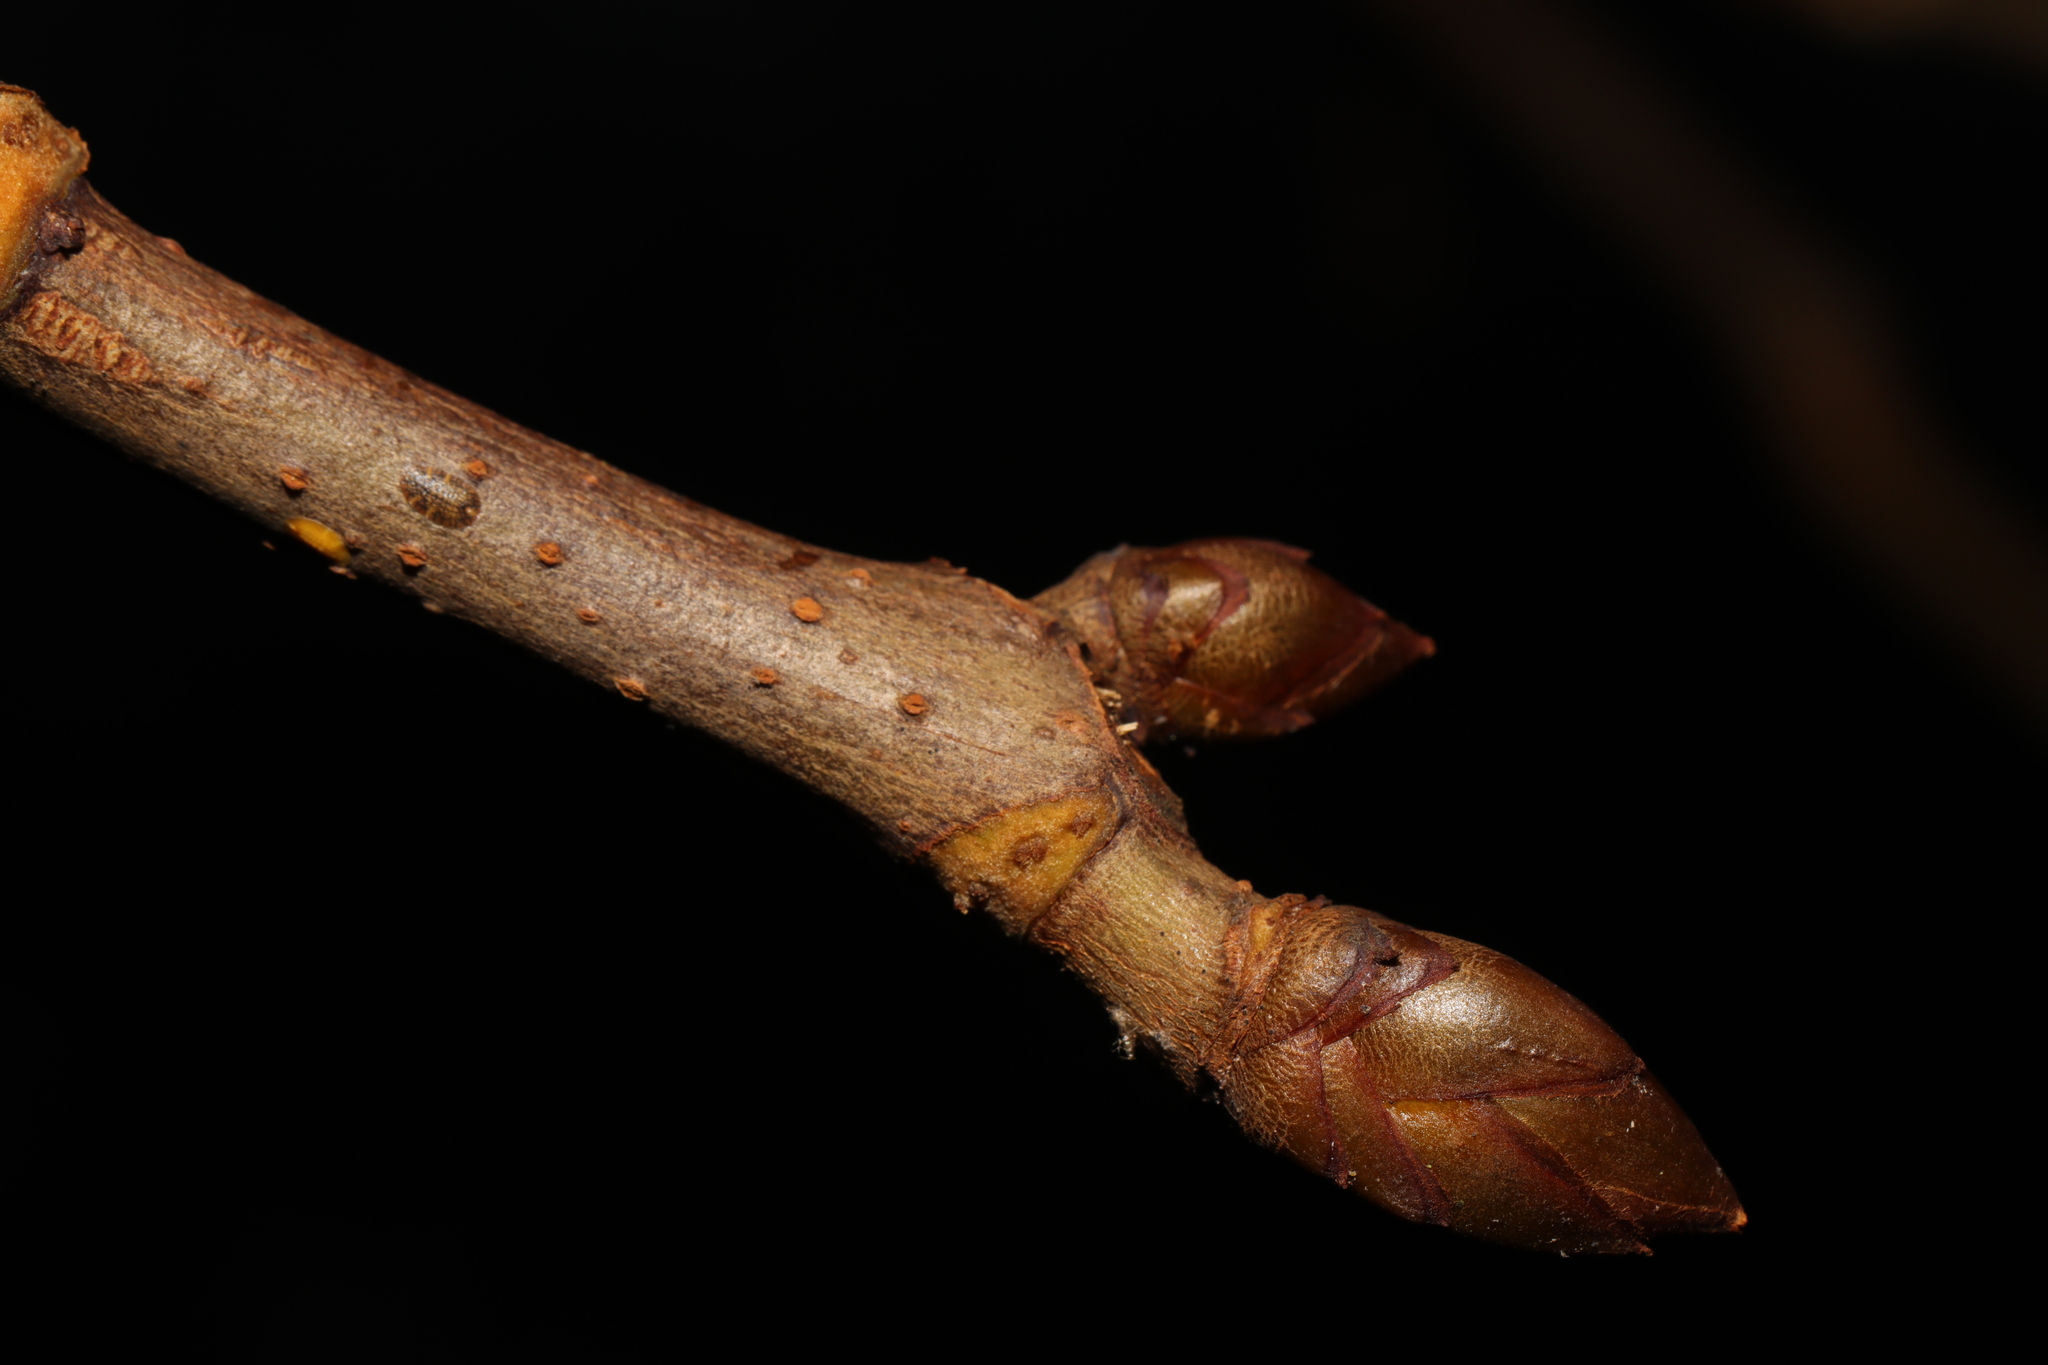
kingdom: Plantae
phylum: Tracheophyta
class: Magnoliopsida
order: Sapindales
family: Sapindaceae
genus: Aesculus
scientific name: Aesculus hippocastanum
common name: Horse-chestnut
